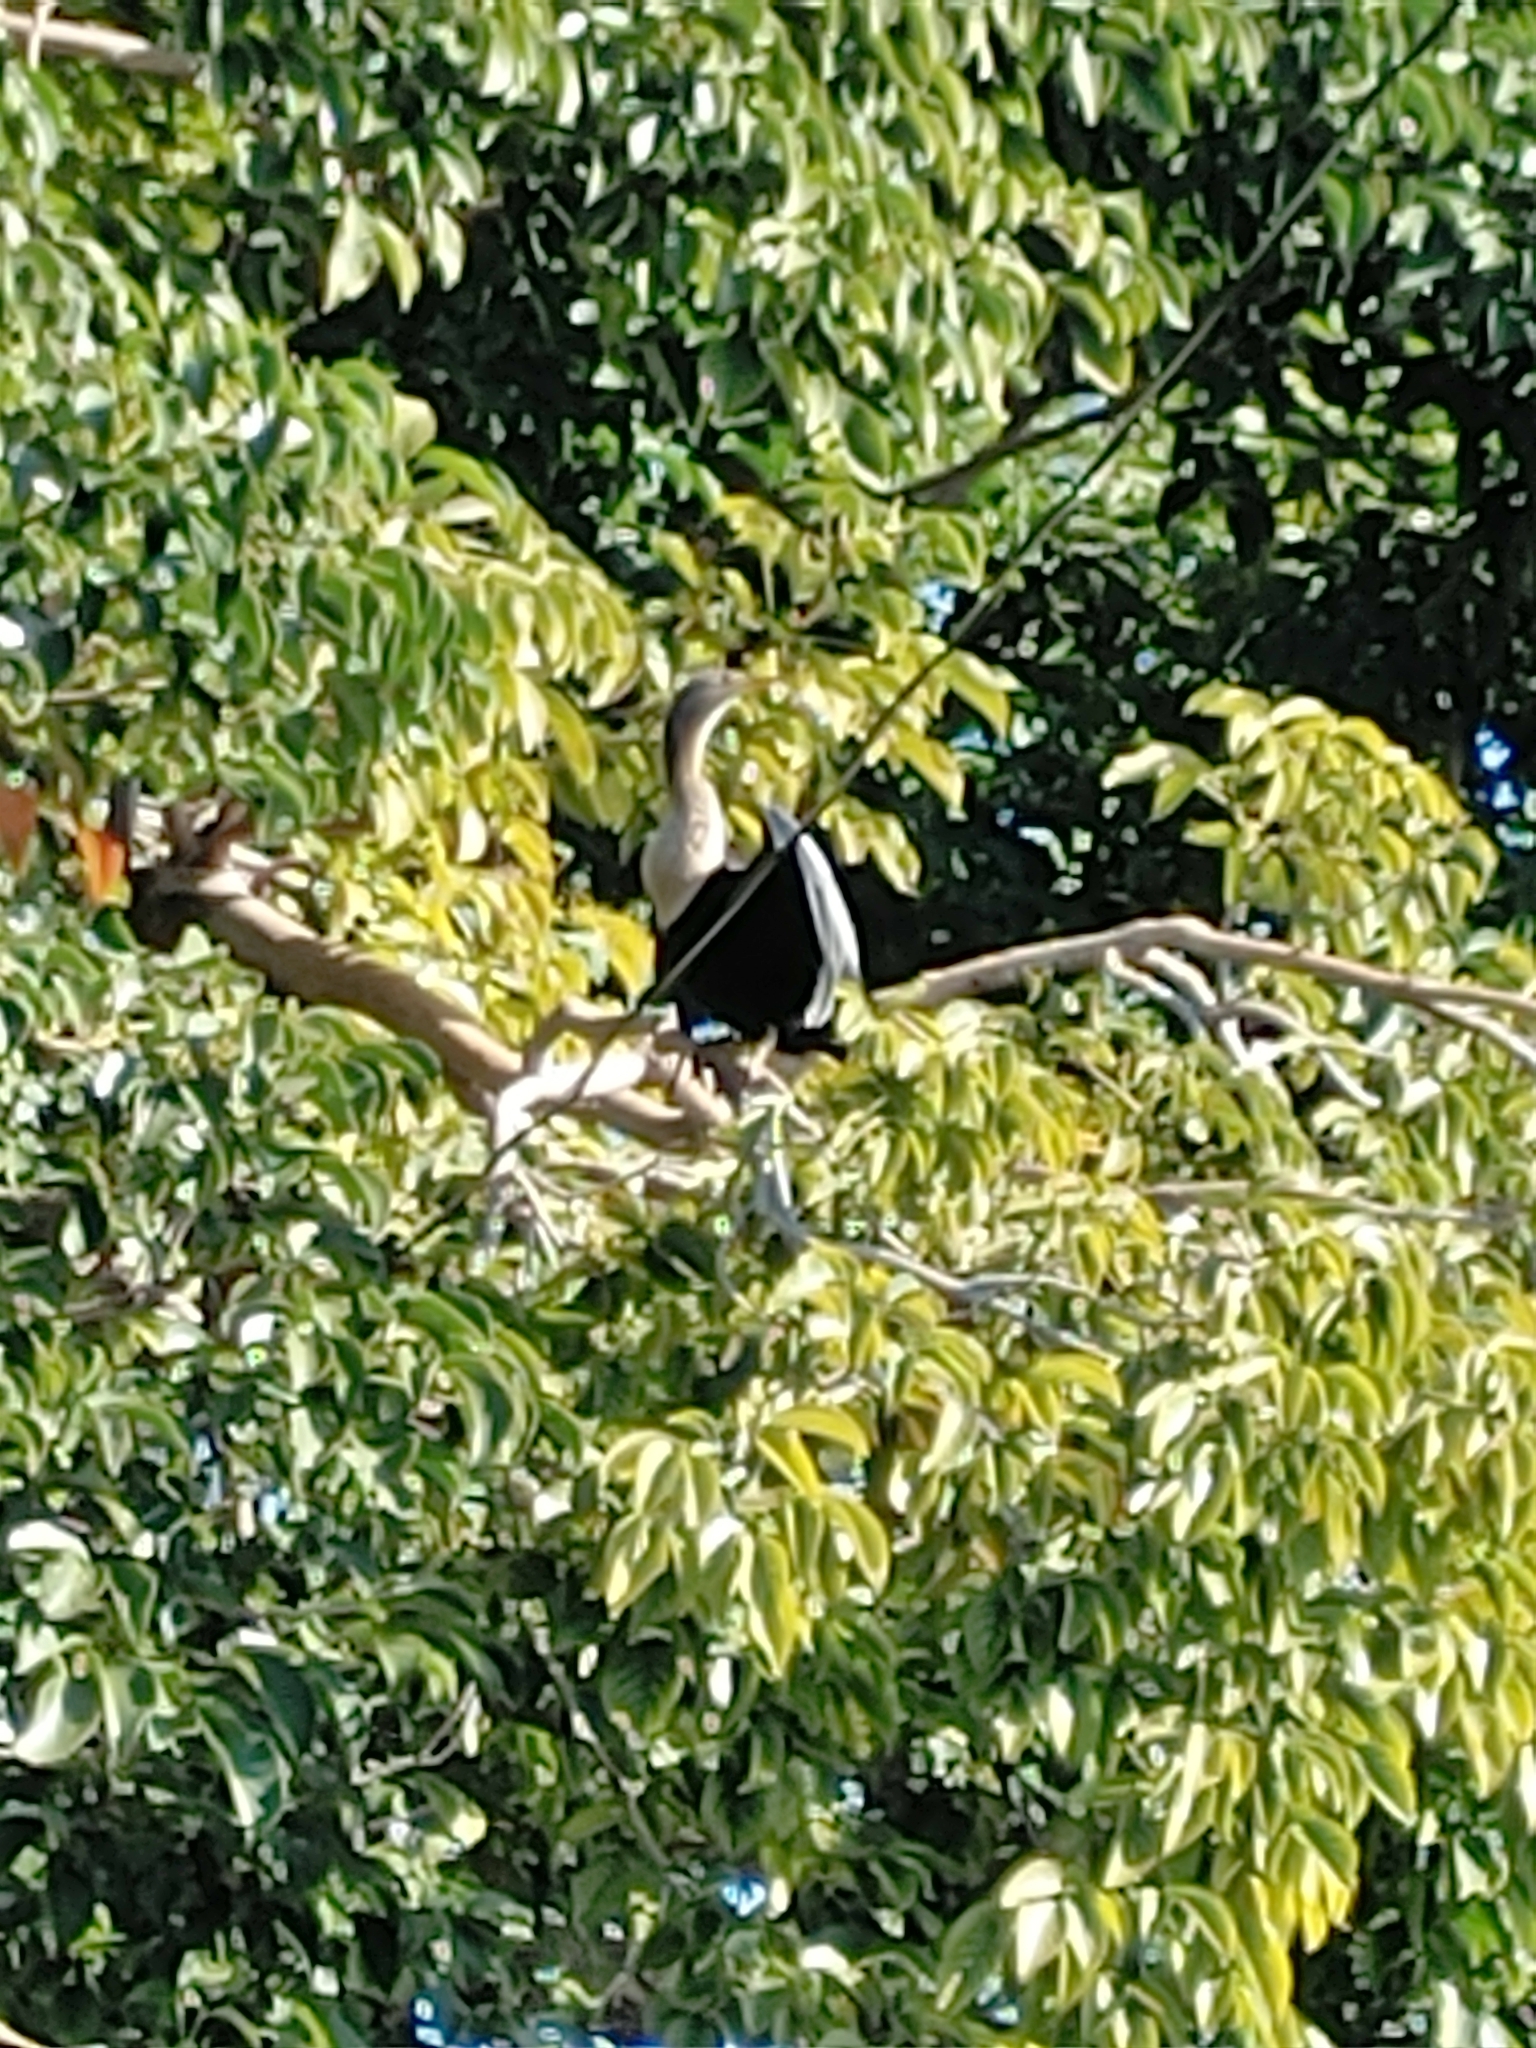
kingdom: Animalia
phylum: Chordata
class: Aves
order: Suliformes
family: Anhingidae
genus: Anhinga
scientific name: Anhinga anhinga
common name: Anhinga
